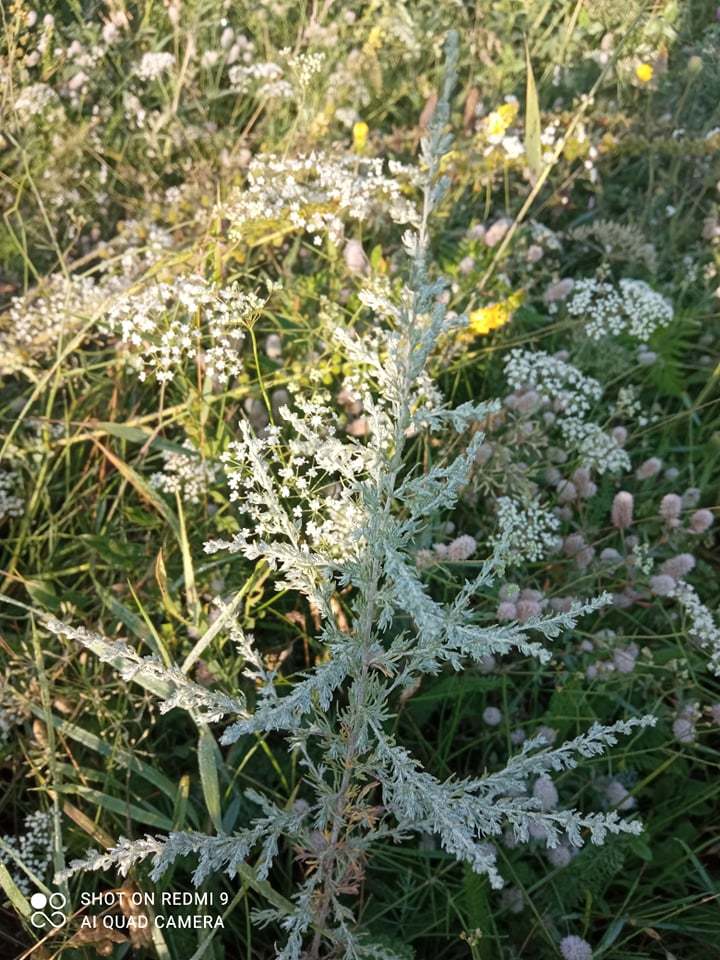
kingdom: Plantae
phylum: Tracheophyta
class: Magnoliopsida
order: Asterales
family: Asteraceae
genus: Artemisia
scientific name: Artemisia austriaca
